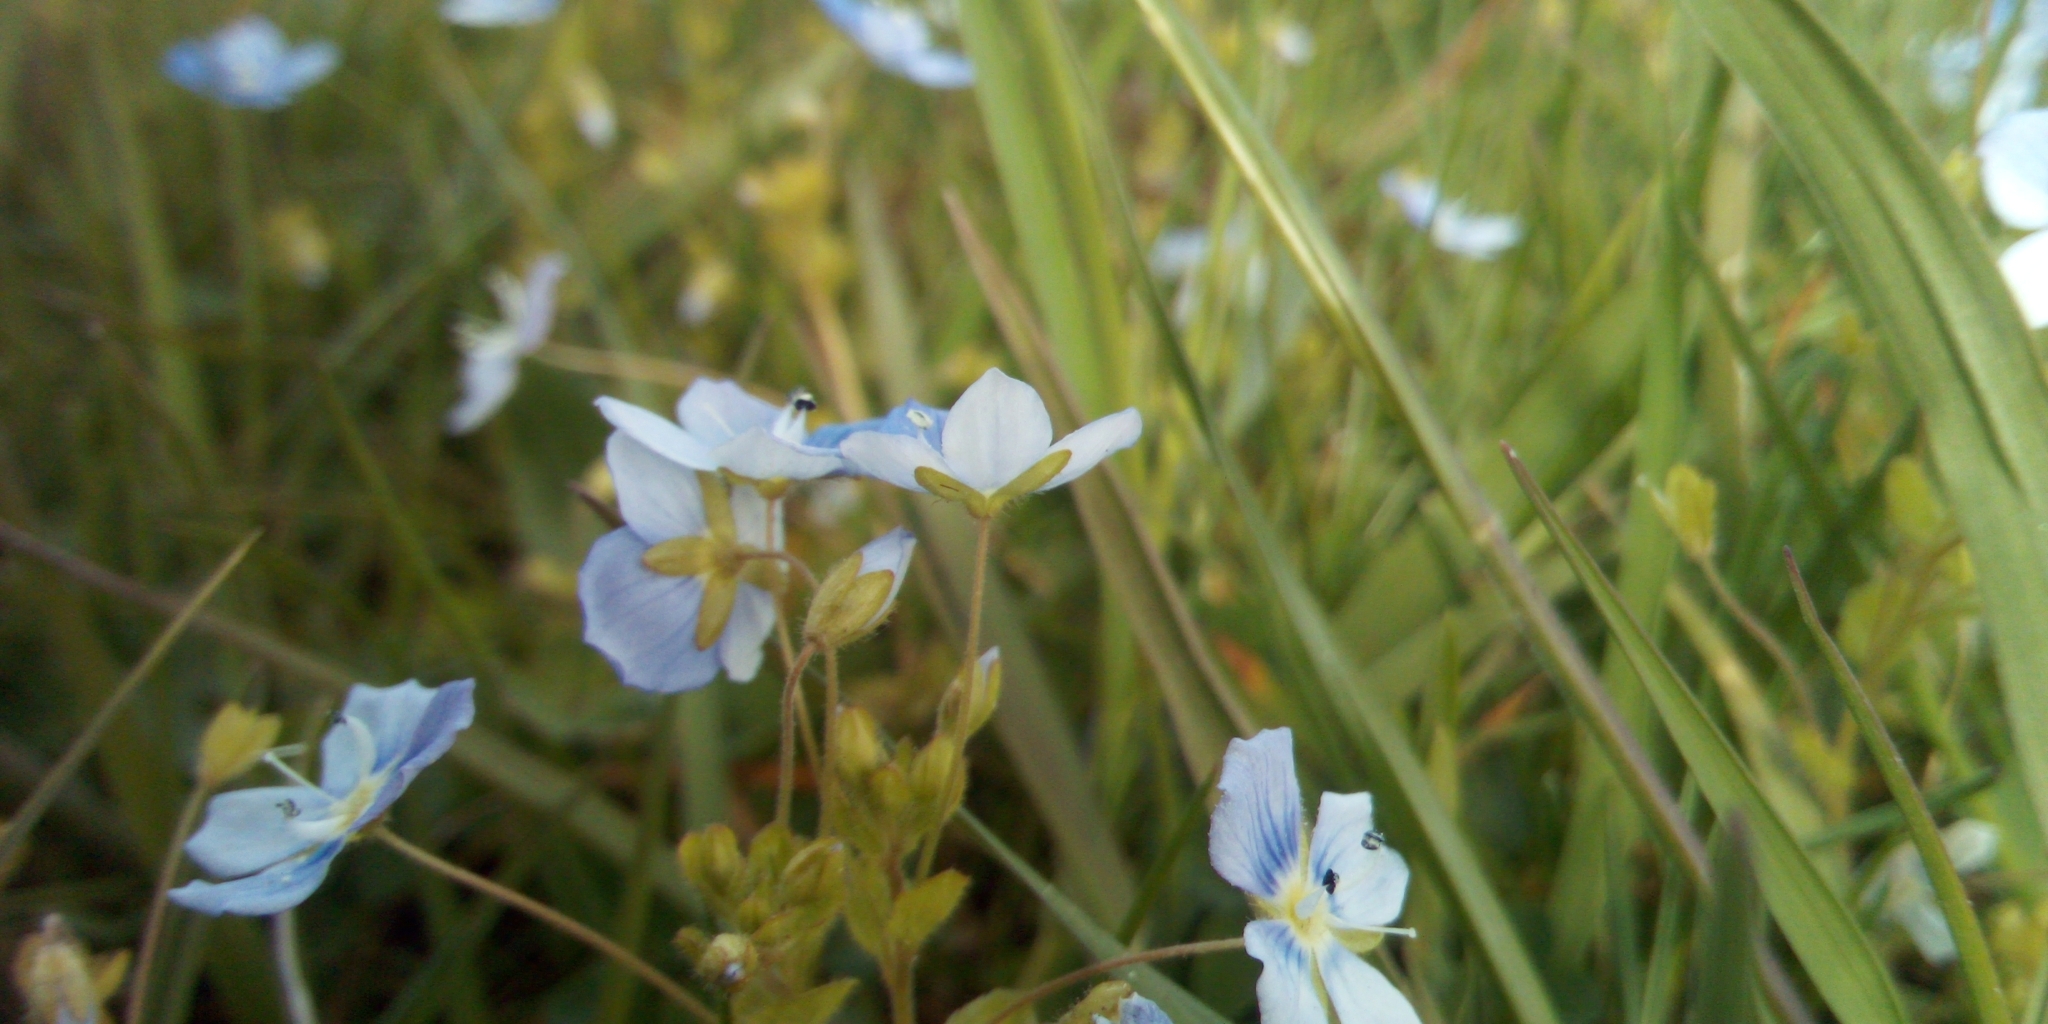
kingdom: Plantae
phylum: Tracheophyta
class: Magnoliopsida
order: Lamiales
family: Plantaginaceae
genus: Veronica
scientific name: Veronica filiformis
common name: Slender speedwell
